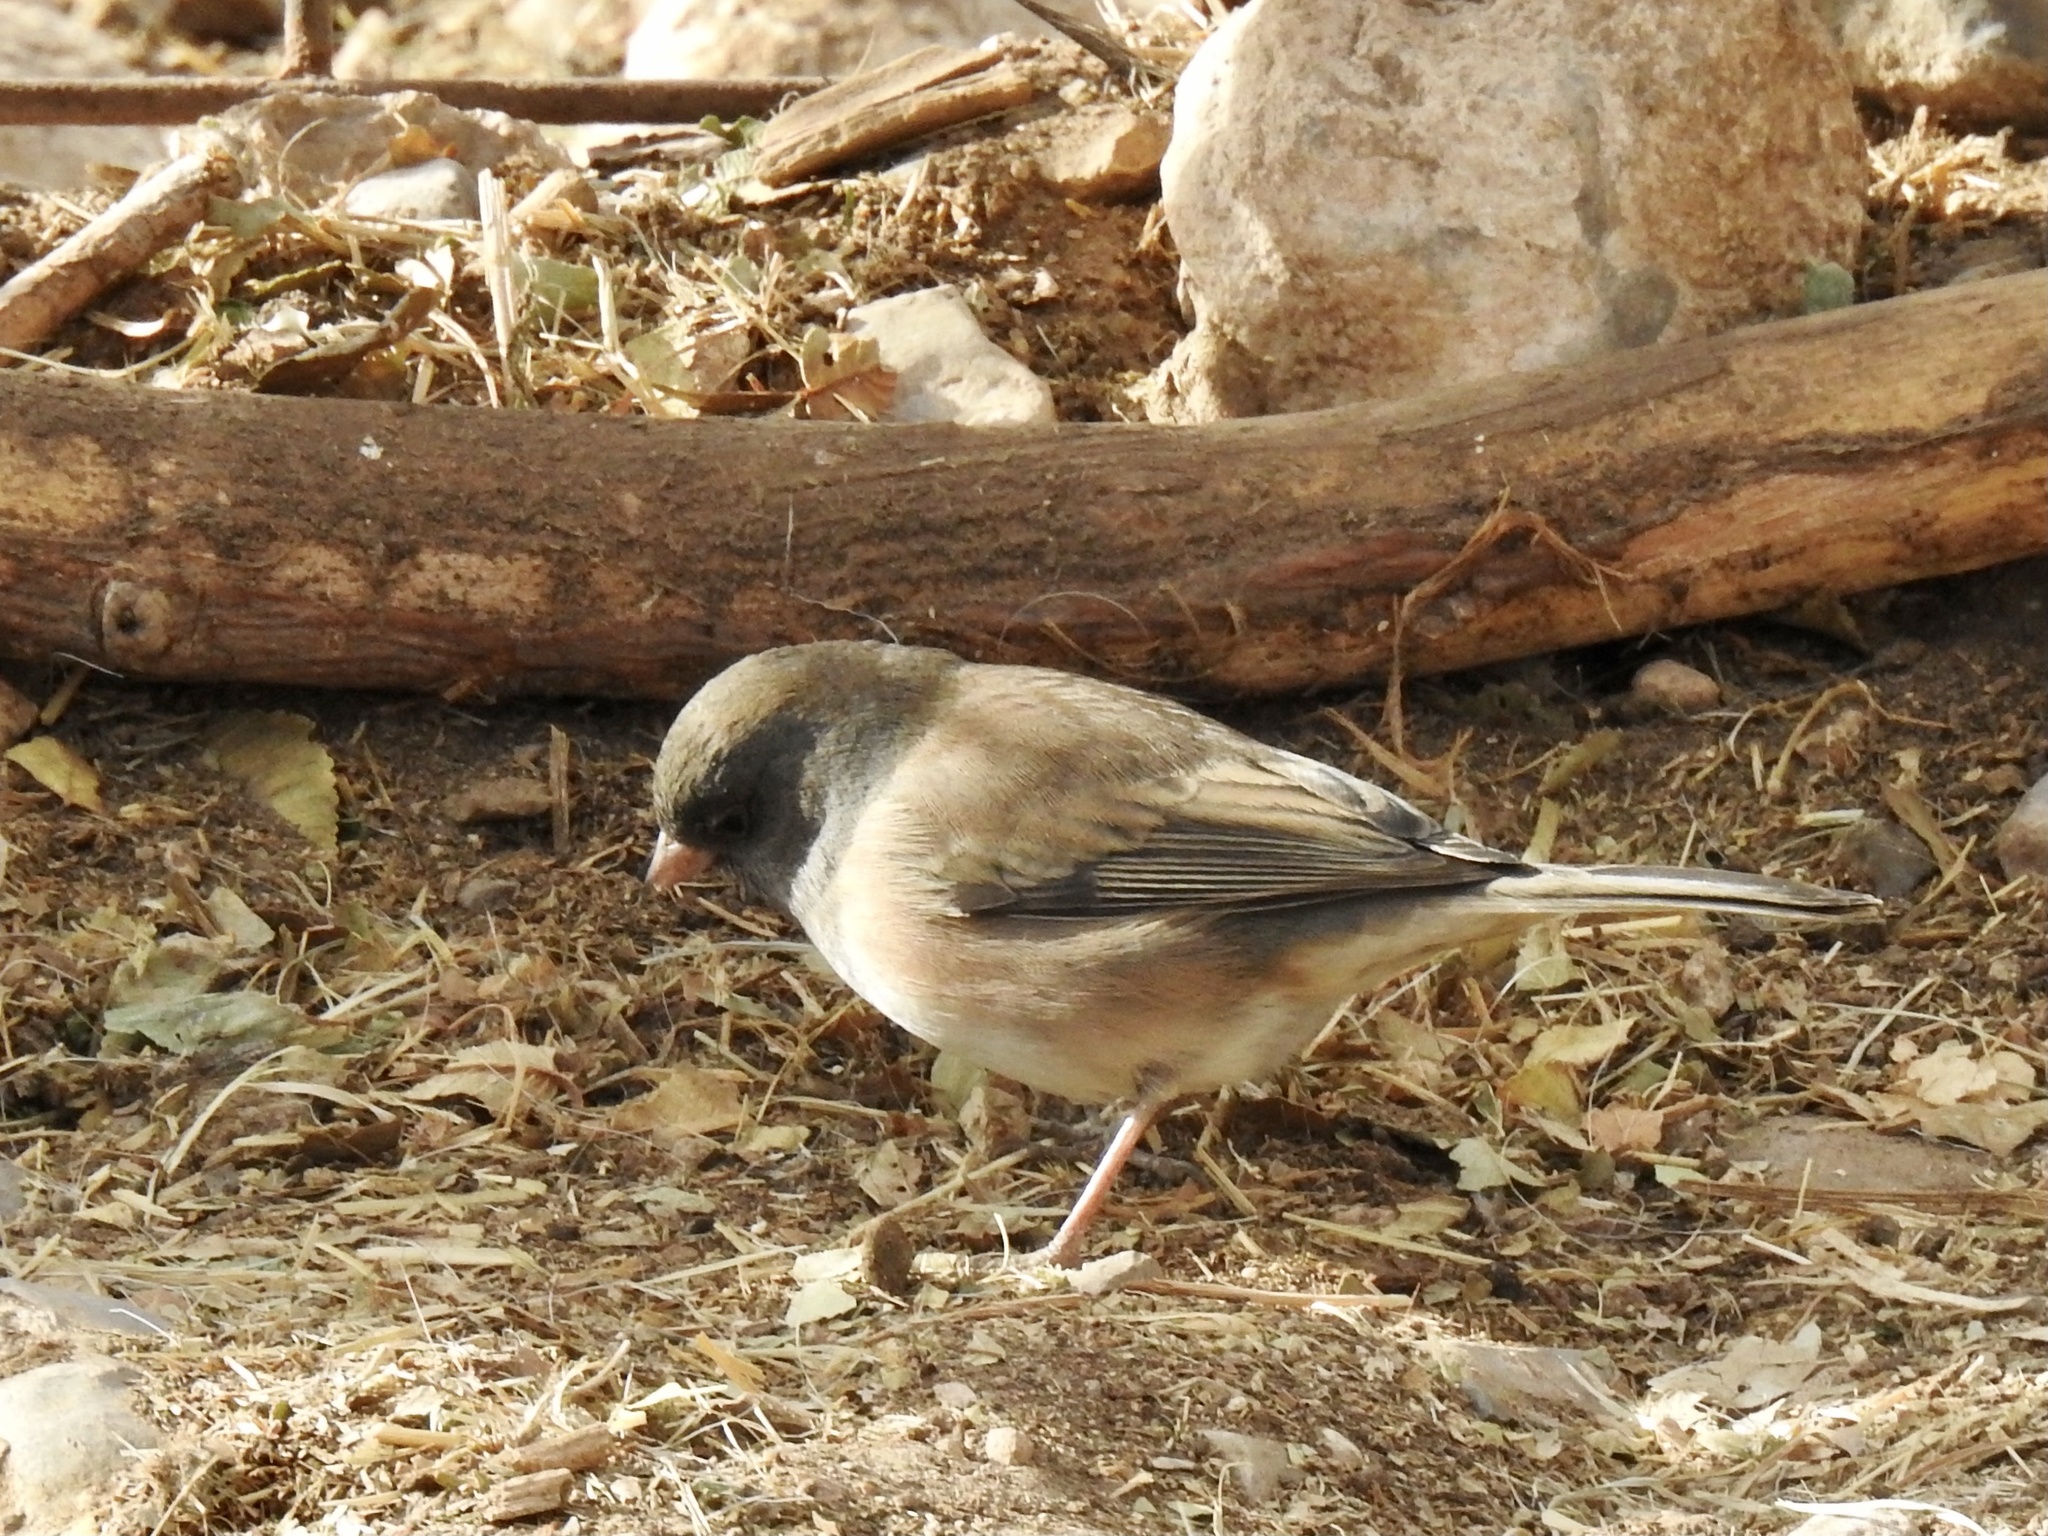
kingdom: Animalia
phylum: Chordata
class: Aves
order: Passeriformes
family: Passerellidae
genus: Junco
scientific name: Junco hyemalis
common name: Dark-eyed junco
